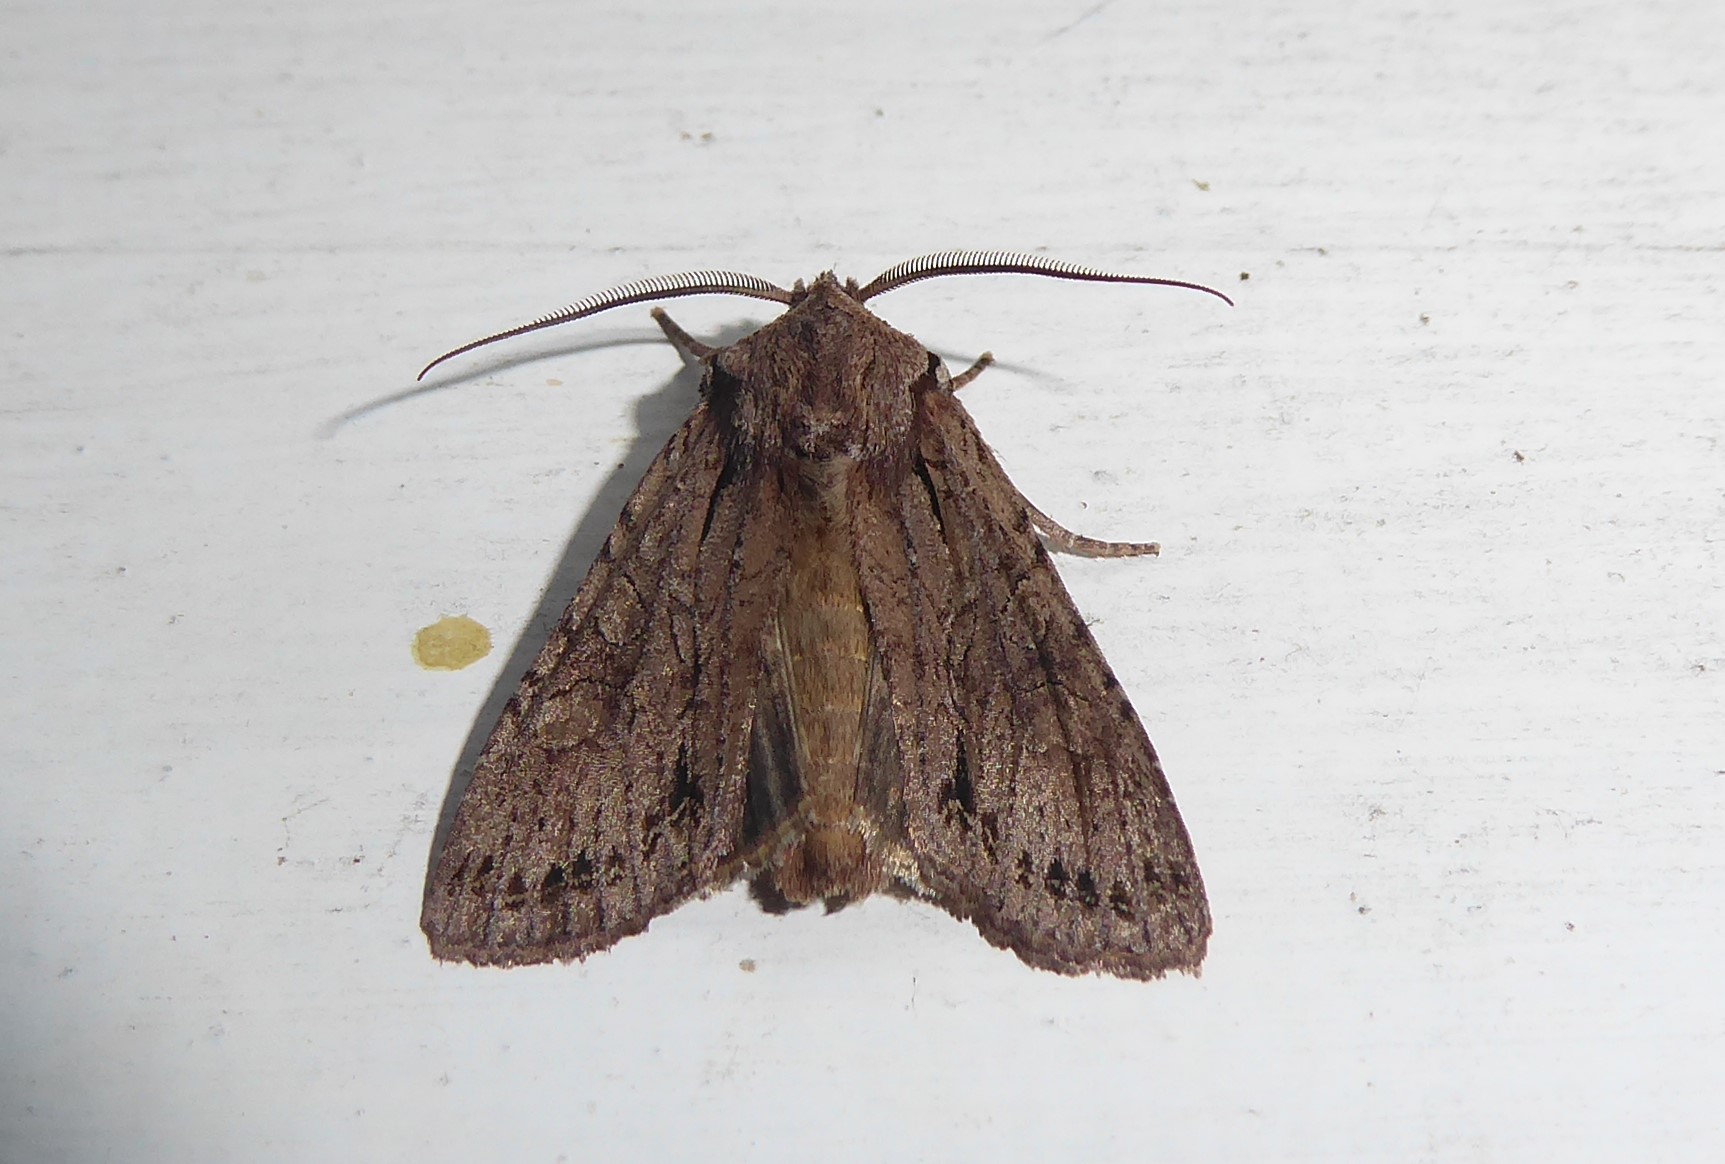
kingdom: Animalia
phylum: Arthropoda
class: Insecta
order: Lepidoptera
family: Noctuidae
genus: Ichneutica
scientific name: Ichneutica
